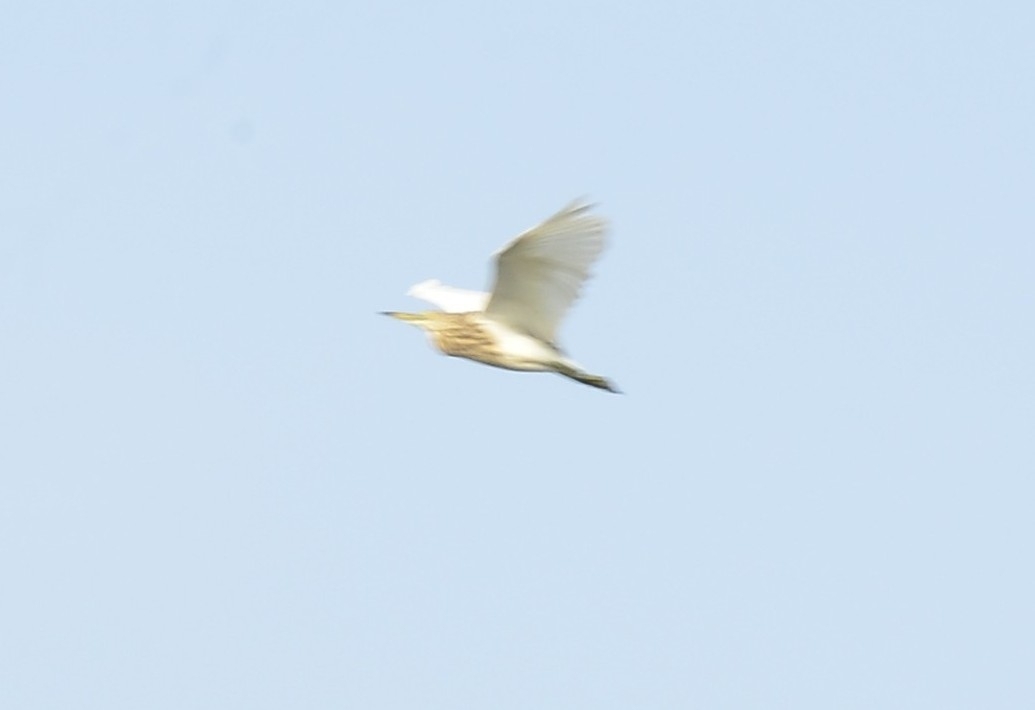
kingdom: Animalia
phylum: Chordata
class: Aves
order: Pelecaniformes
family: Ardeidae
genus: Ardeola
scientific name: Ardeola grayii
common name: Indian pond heron
